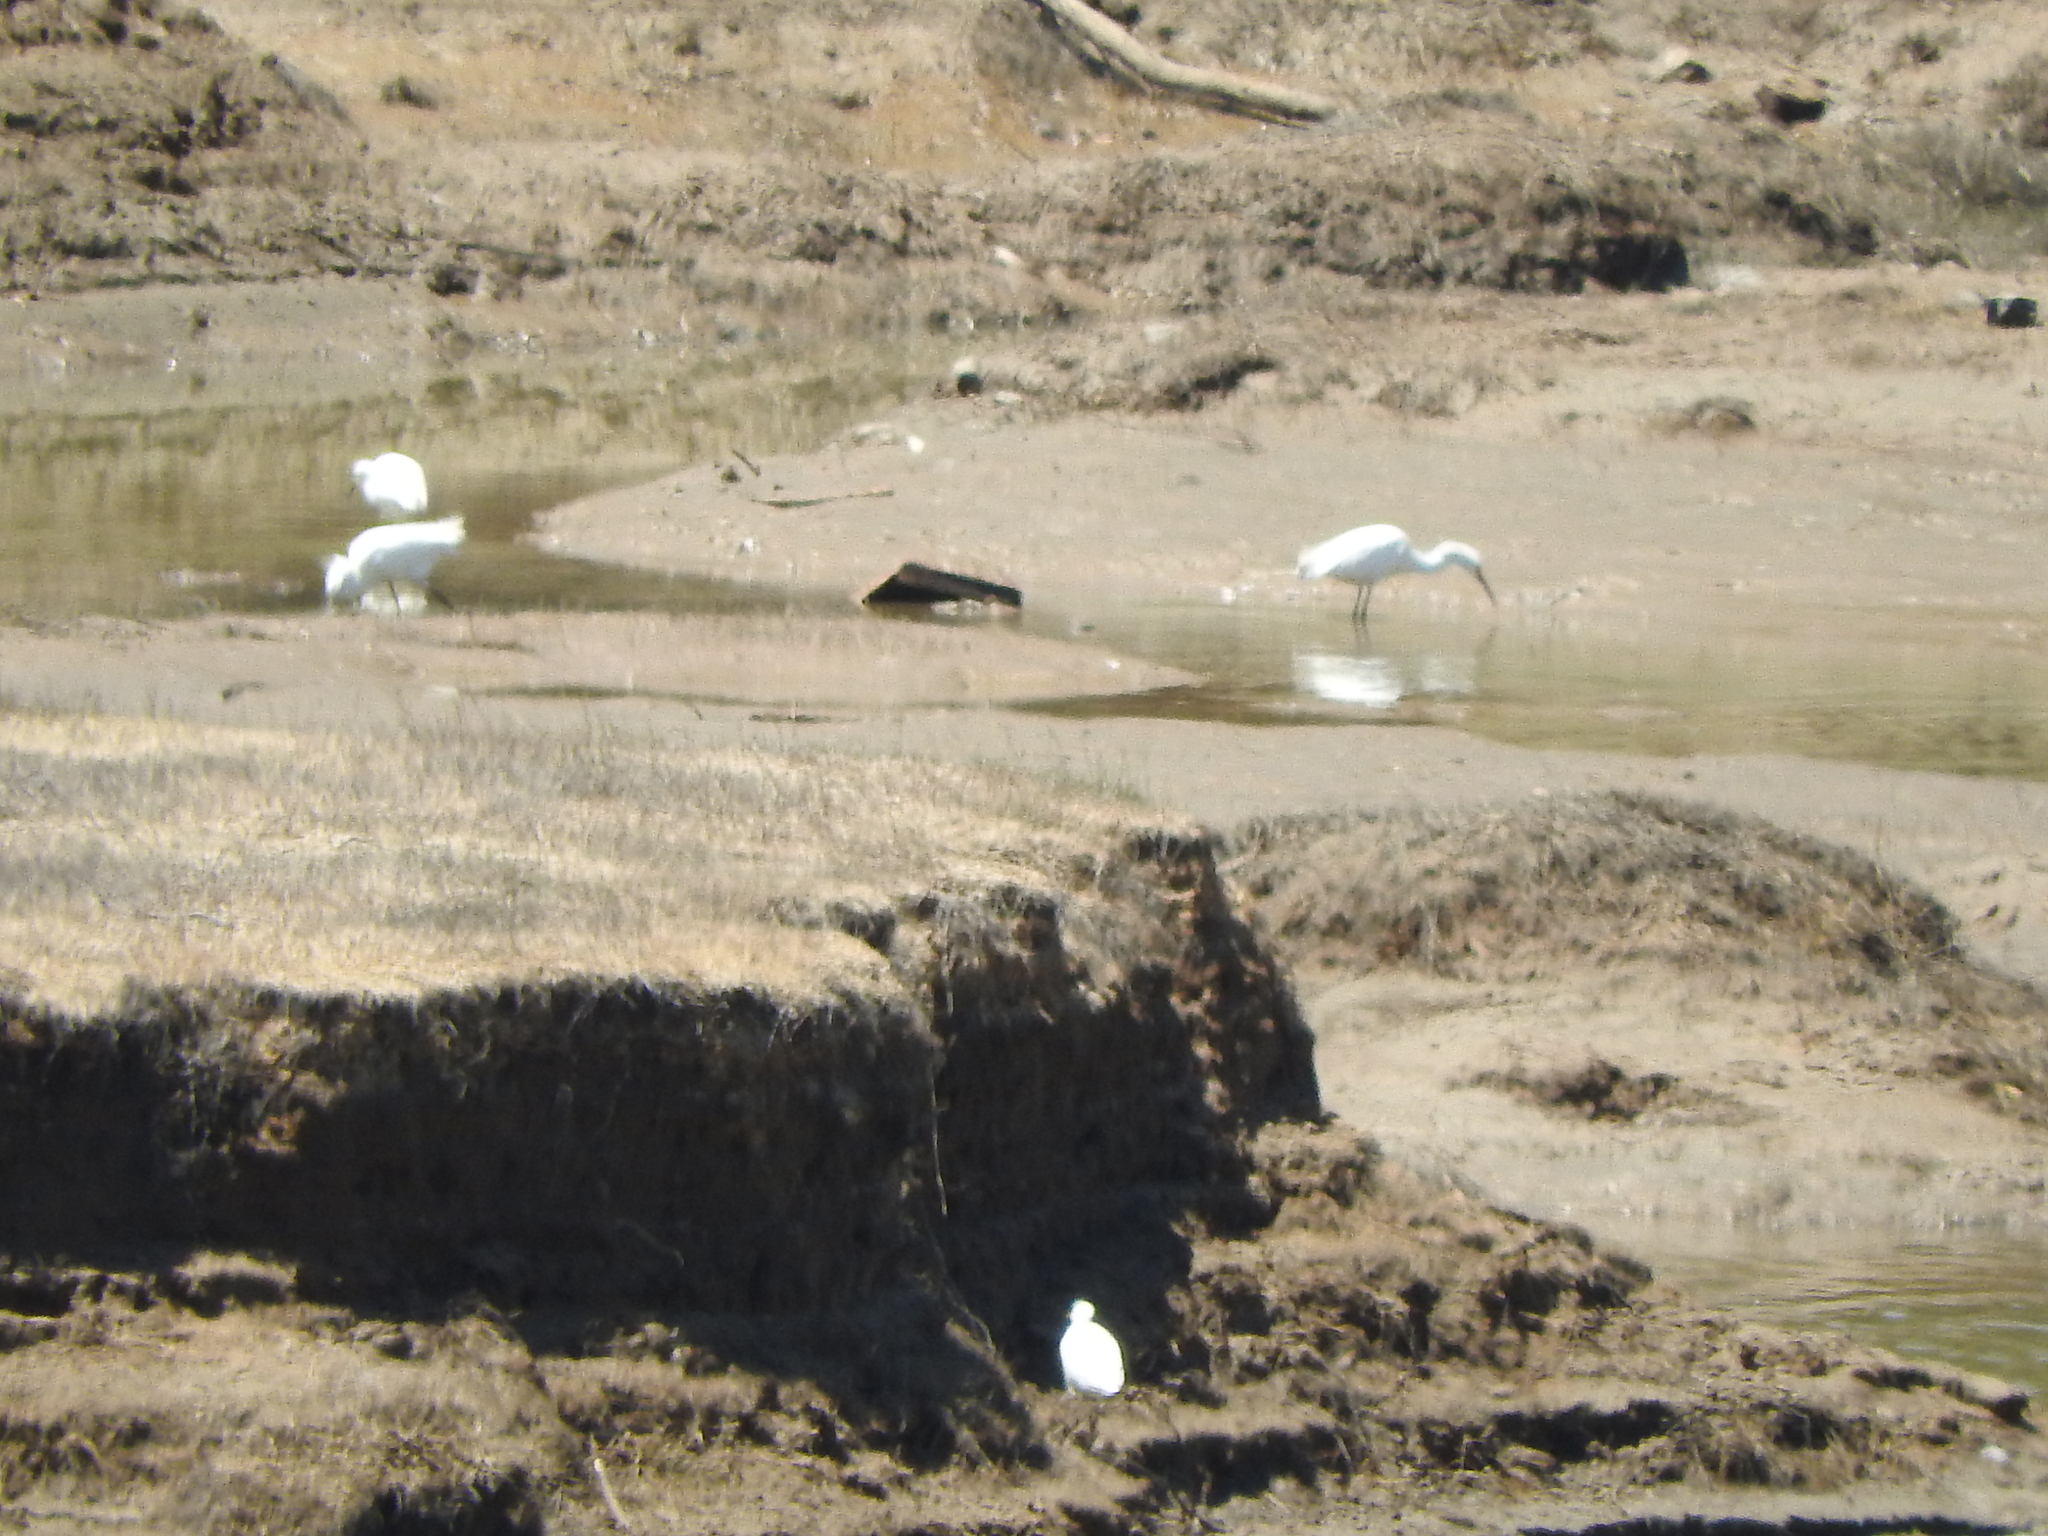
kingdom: Animalia
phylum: Chordata
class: Aves
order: Pelecaniformes
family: Ardeidae
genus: Ardea
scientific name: Ardea alba
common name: Great egret
